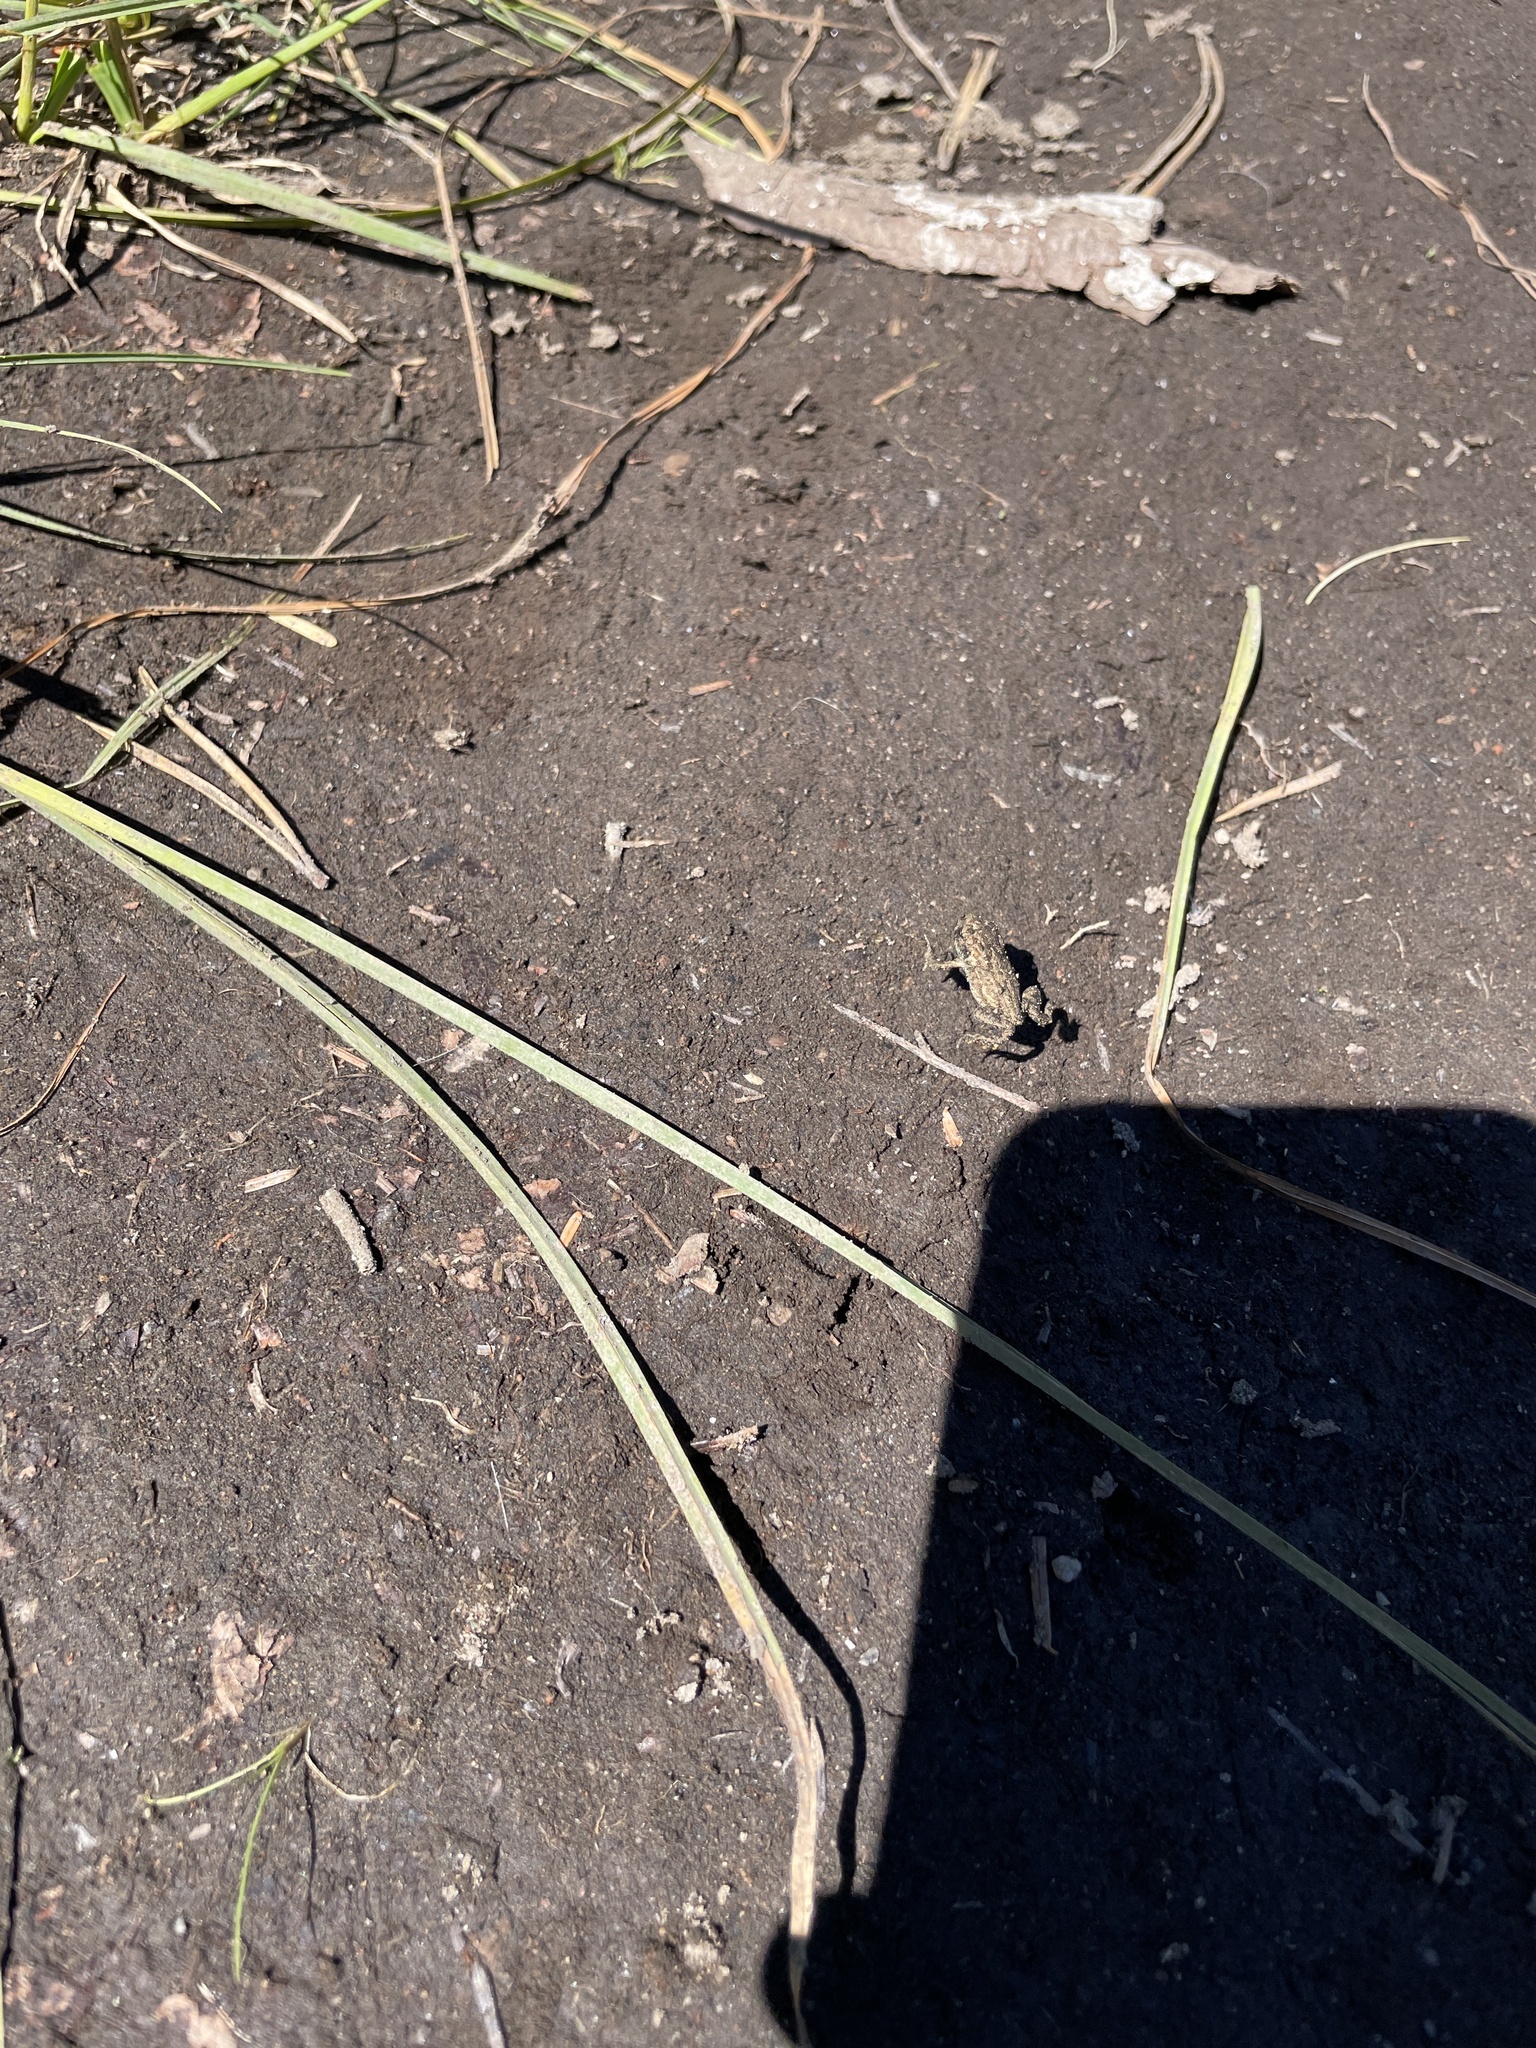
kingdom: Animalia
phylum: Chordata
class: Amphibia
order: Anura
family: Bufonidae
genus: Anaxyrus
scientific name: Anaxyrus boreas
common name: Western toad
